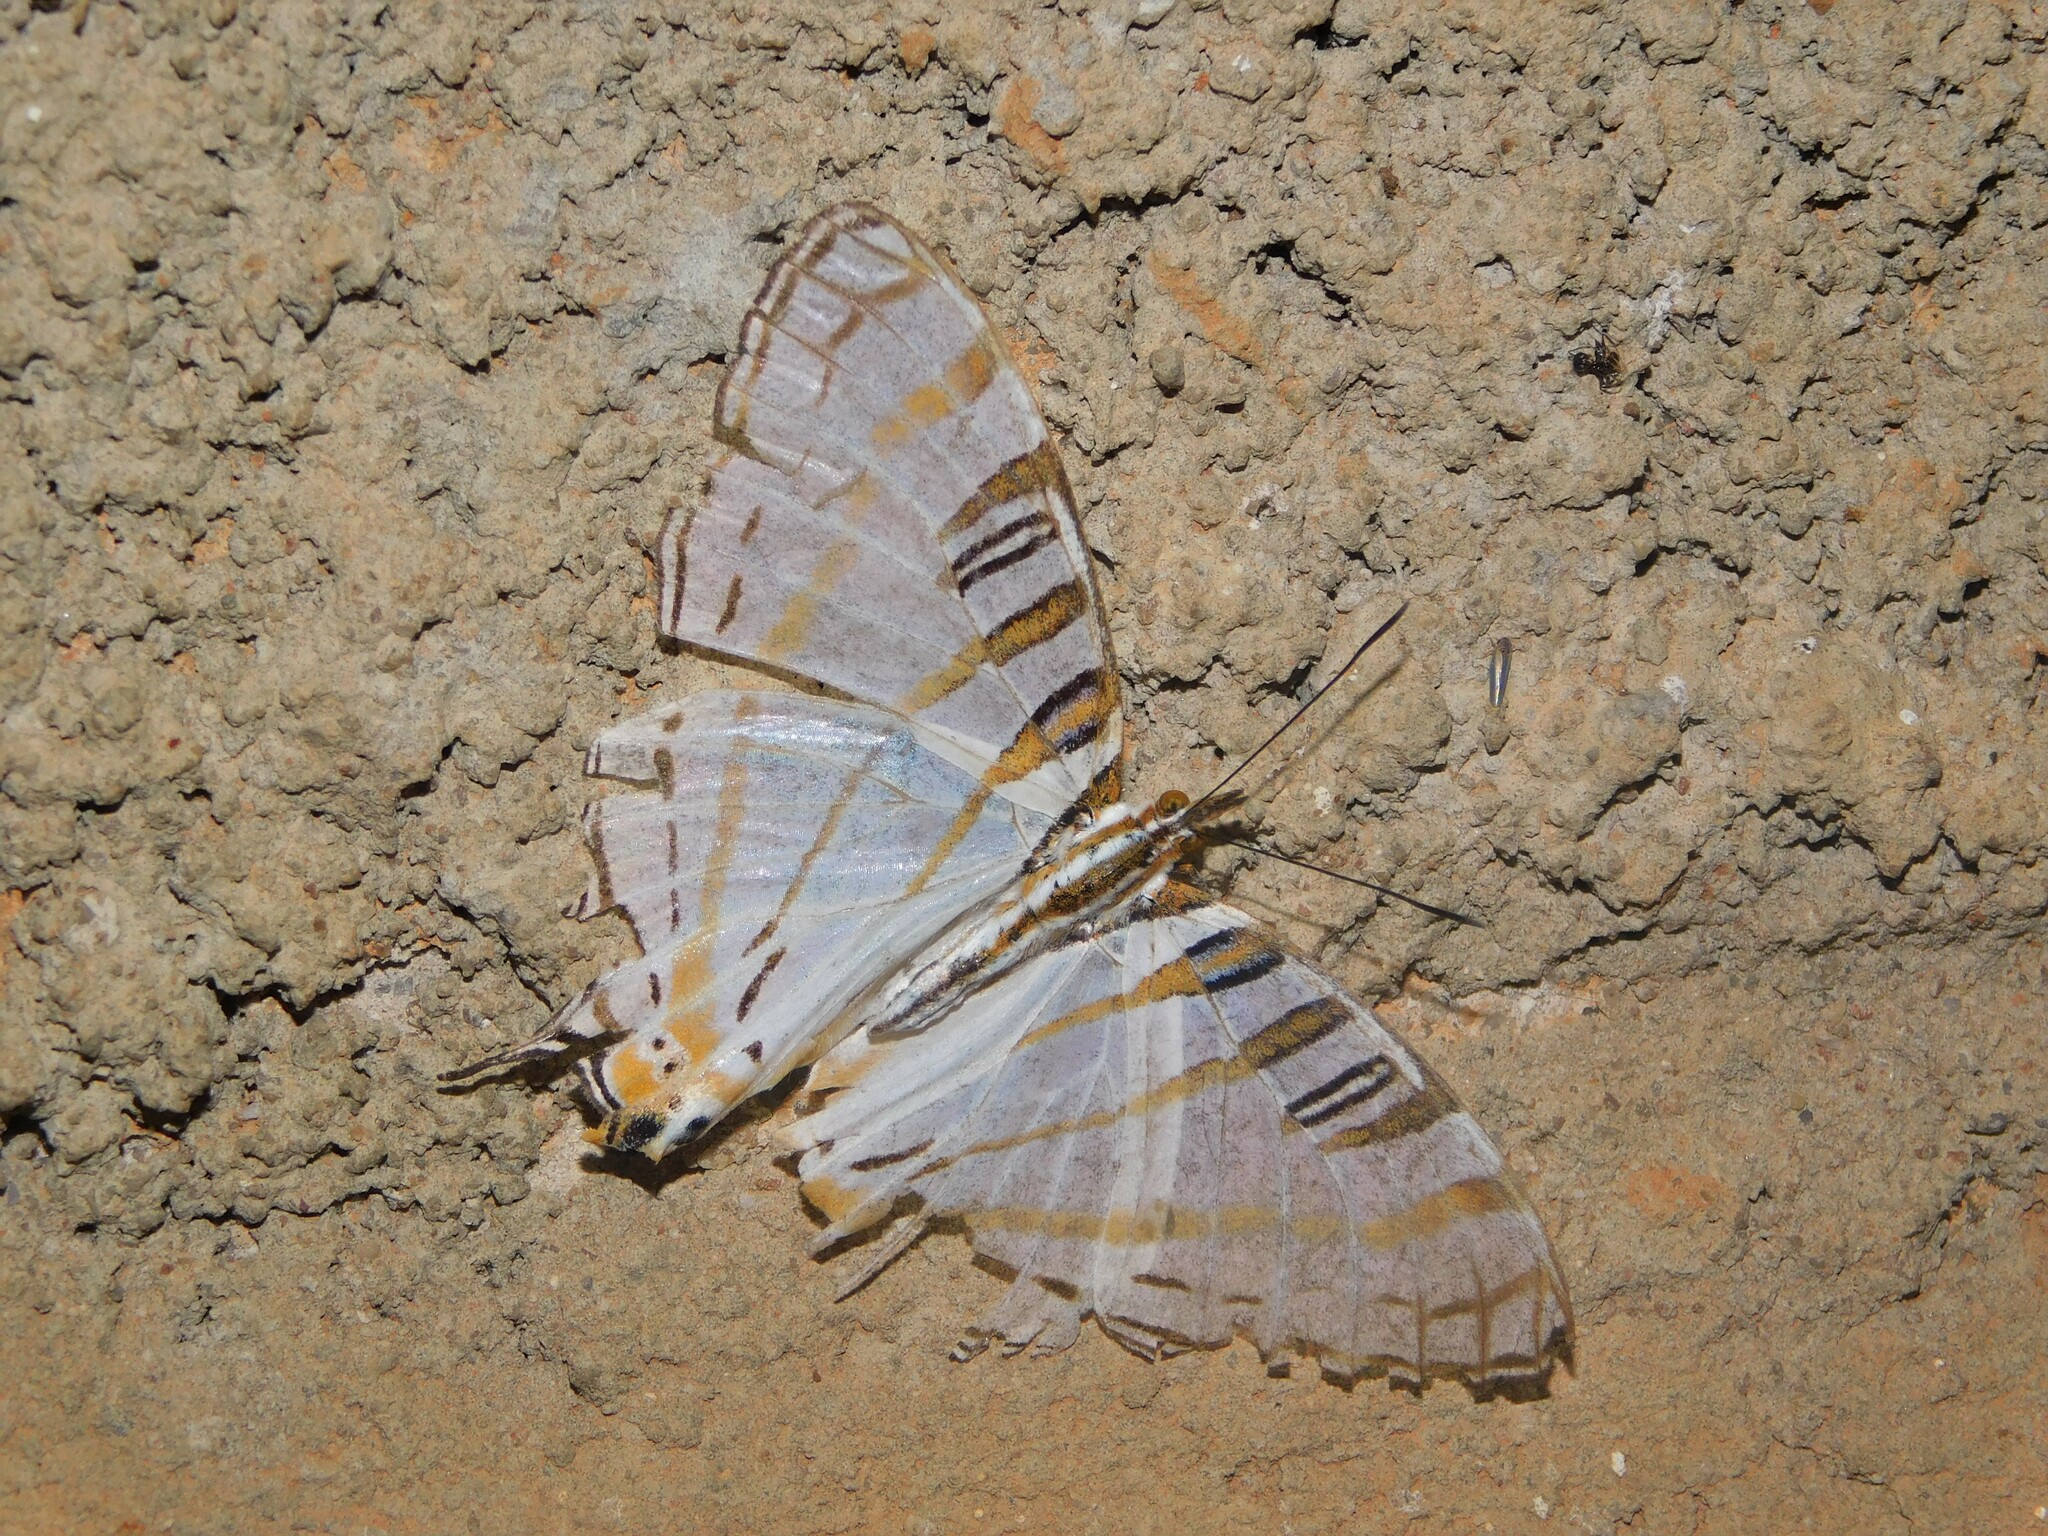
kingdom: Animalia
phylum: Arthropoda
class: Insecta
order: Lepidoptera
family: Nymphalidae
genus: Marpesia
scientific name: Marpesia camillus
